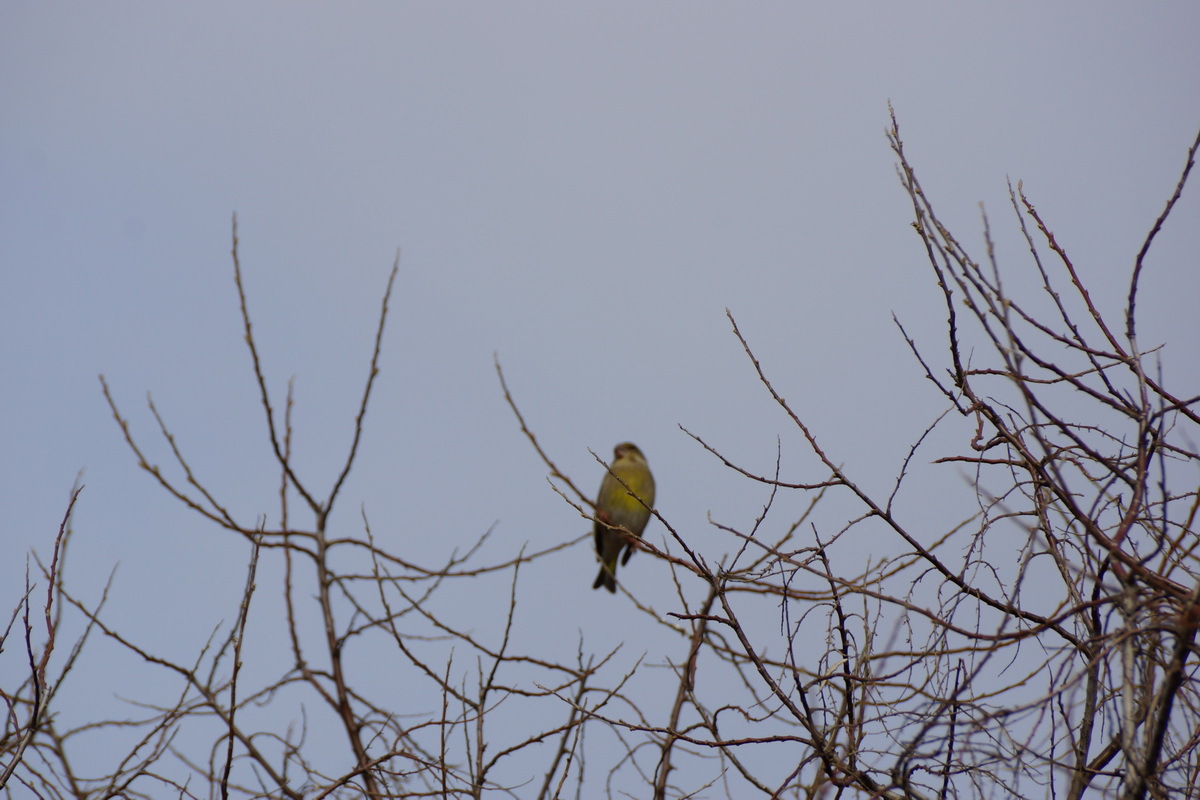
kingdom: Plantae
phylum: Tracheophyta
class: Liliopsida
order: Poales
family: Poaceae
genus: Chloris
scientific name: Chloris chloris
